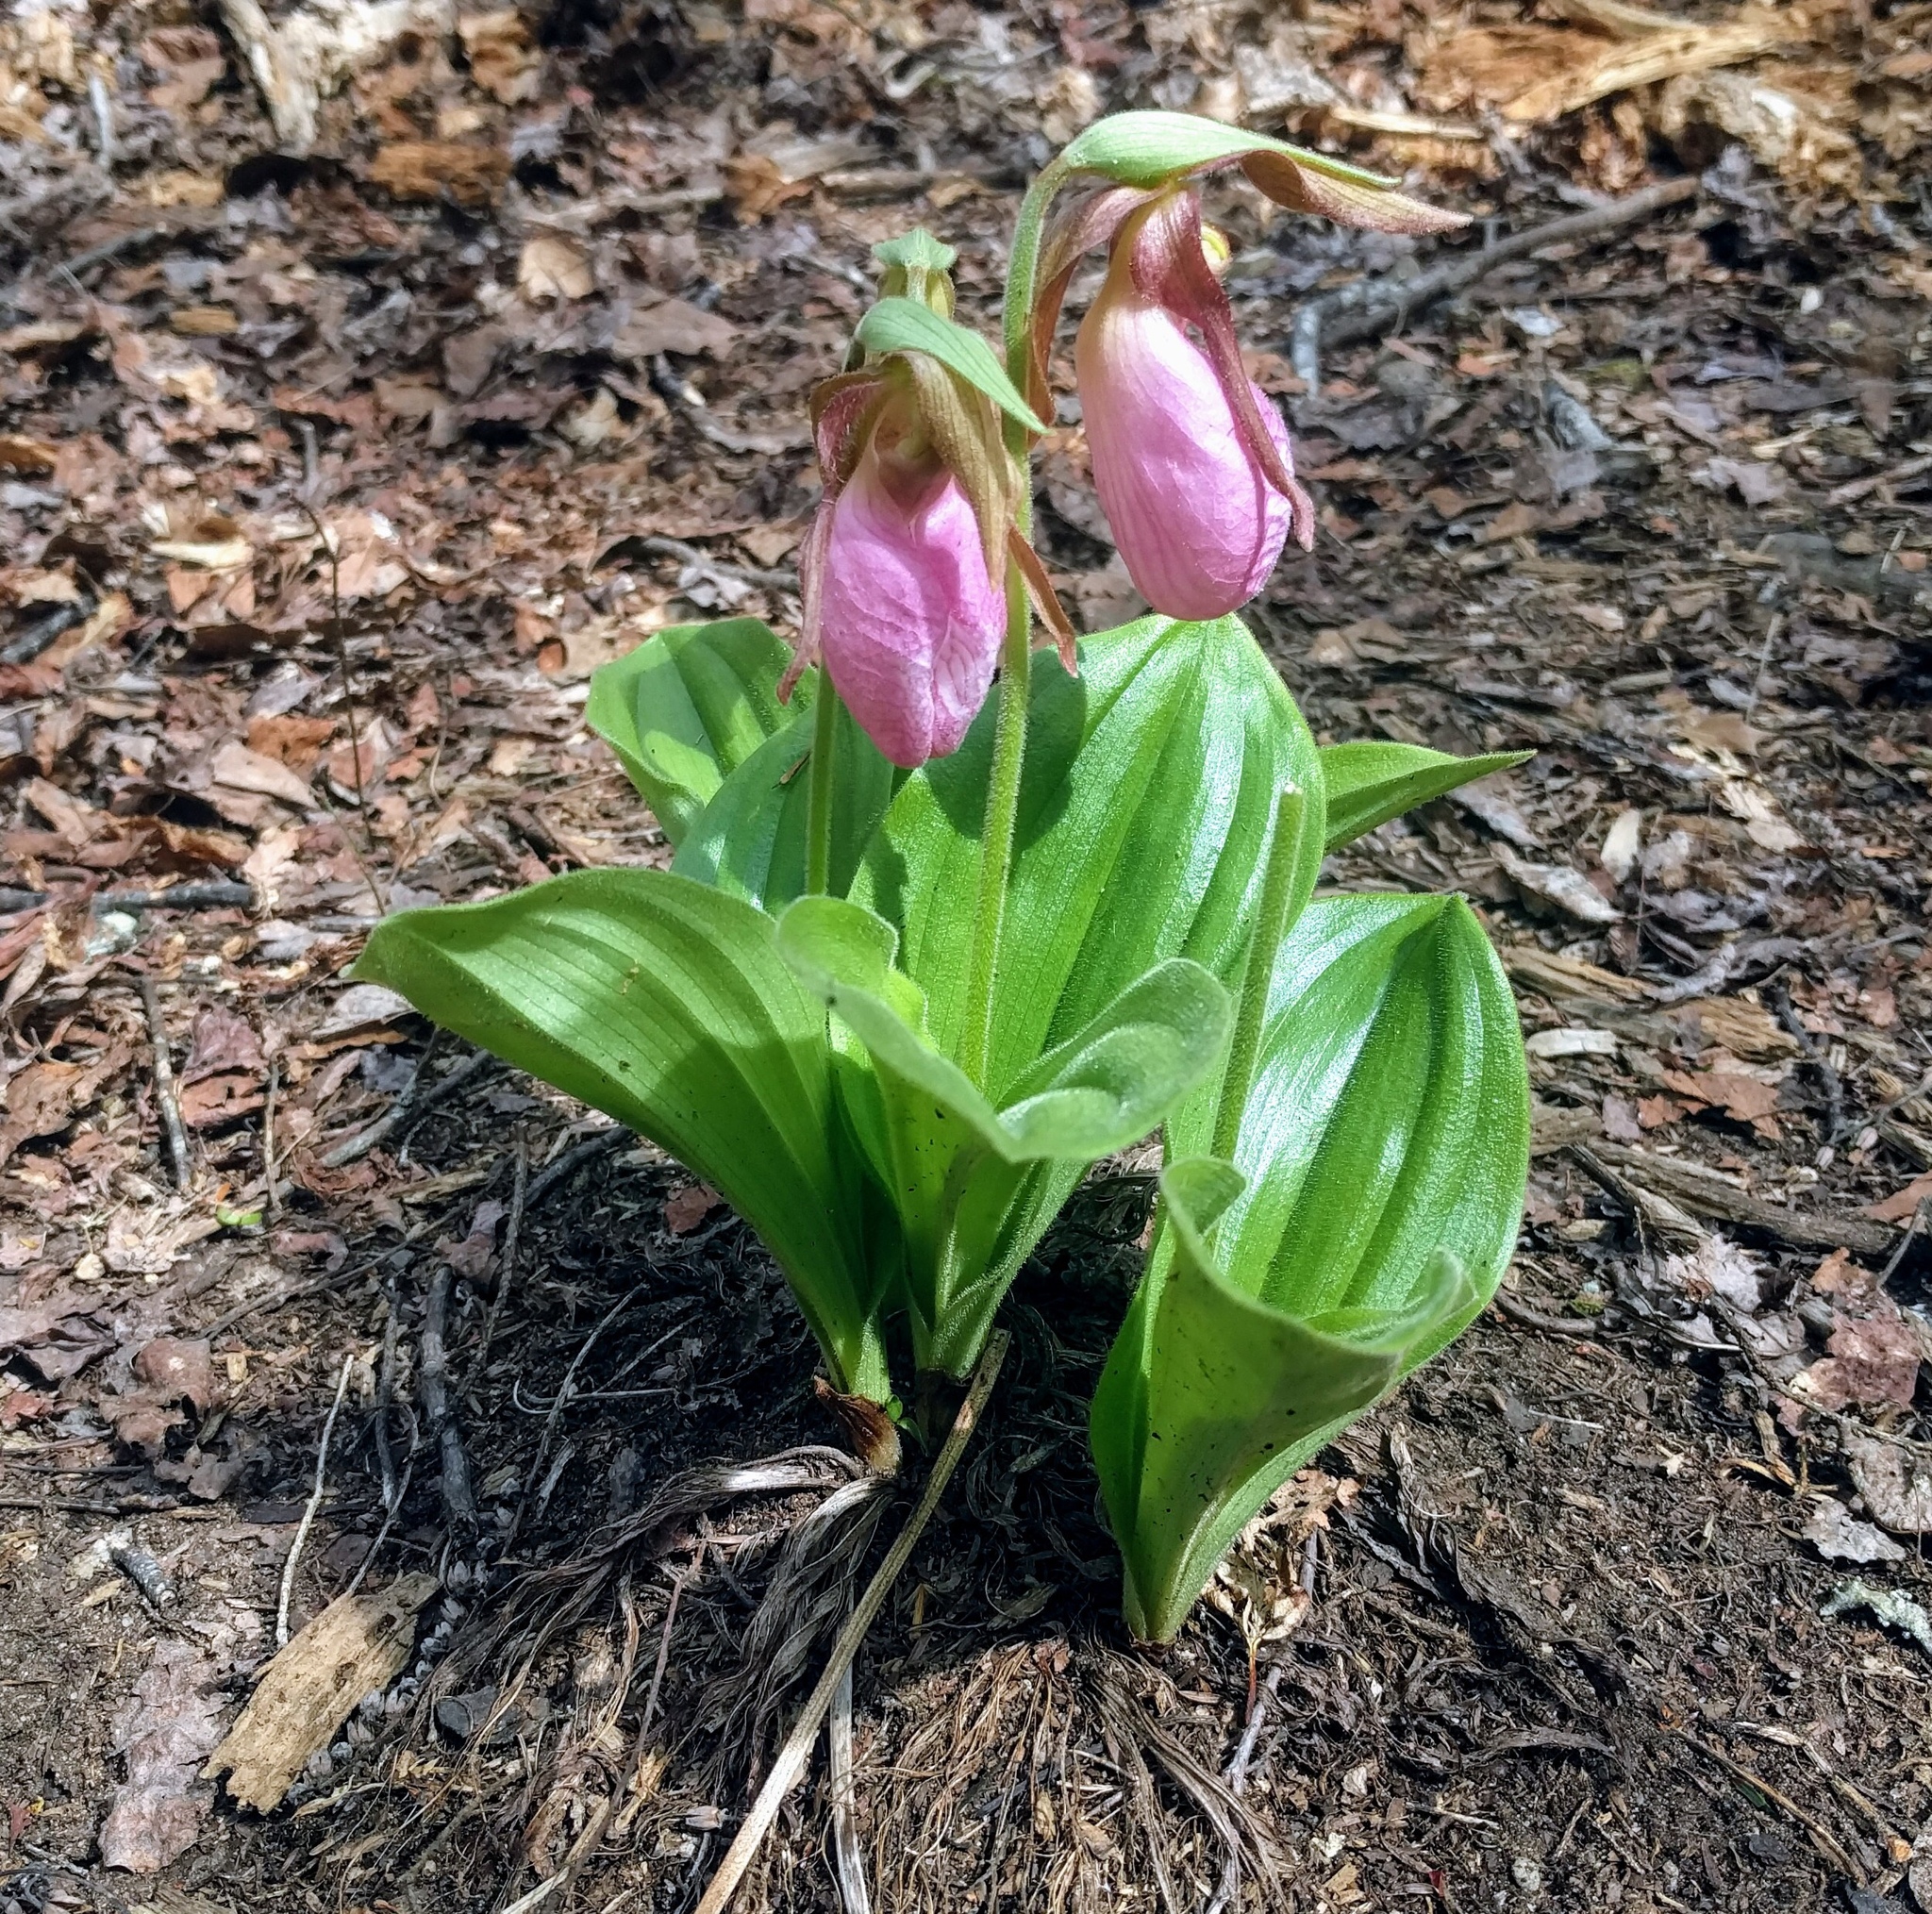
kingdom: Plantae
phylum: Tracheophyta
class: Liliopsida
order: Asparagales
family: Orchidaceae
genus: Cypripedium
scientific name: Cypripedium acaule
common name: Pink lady's-slipper
